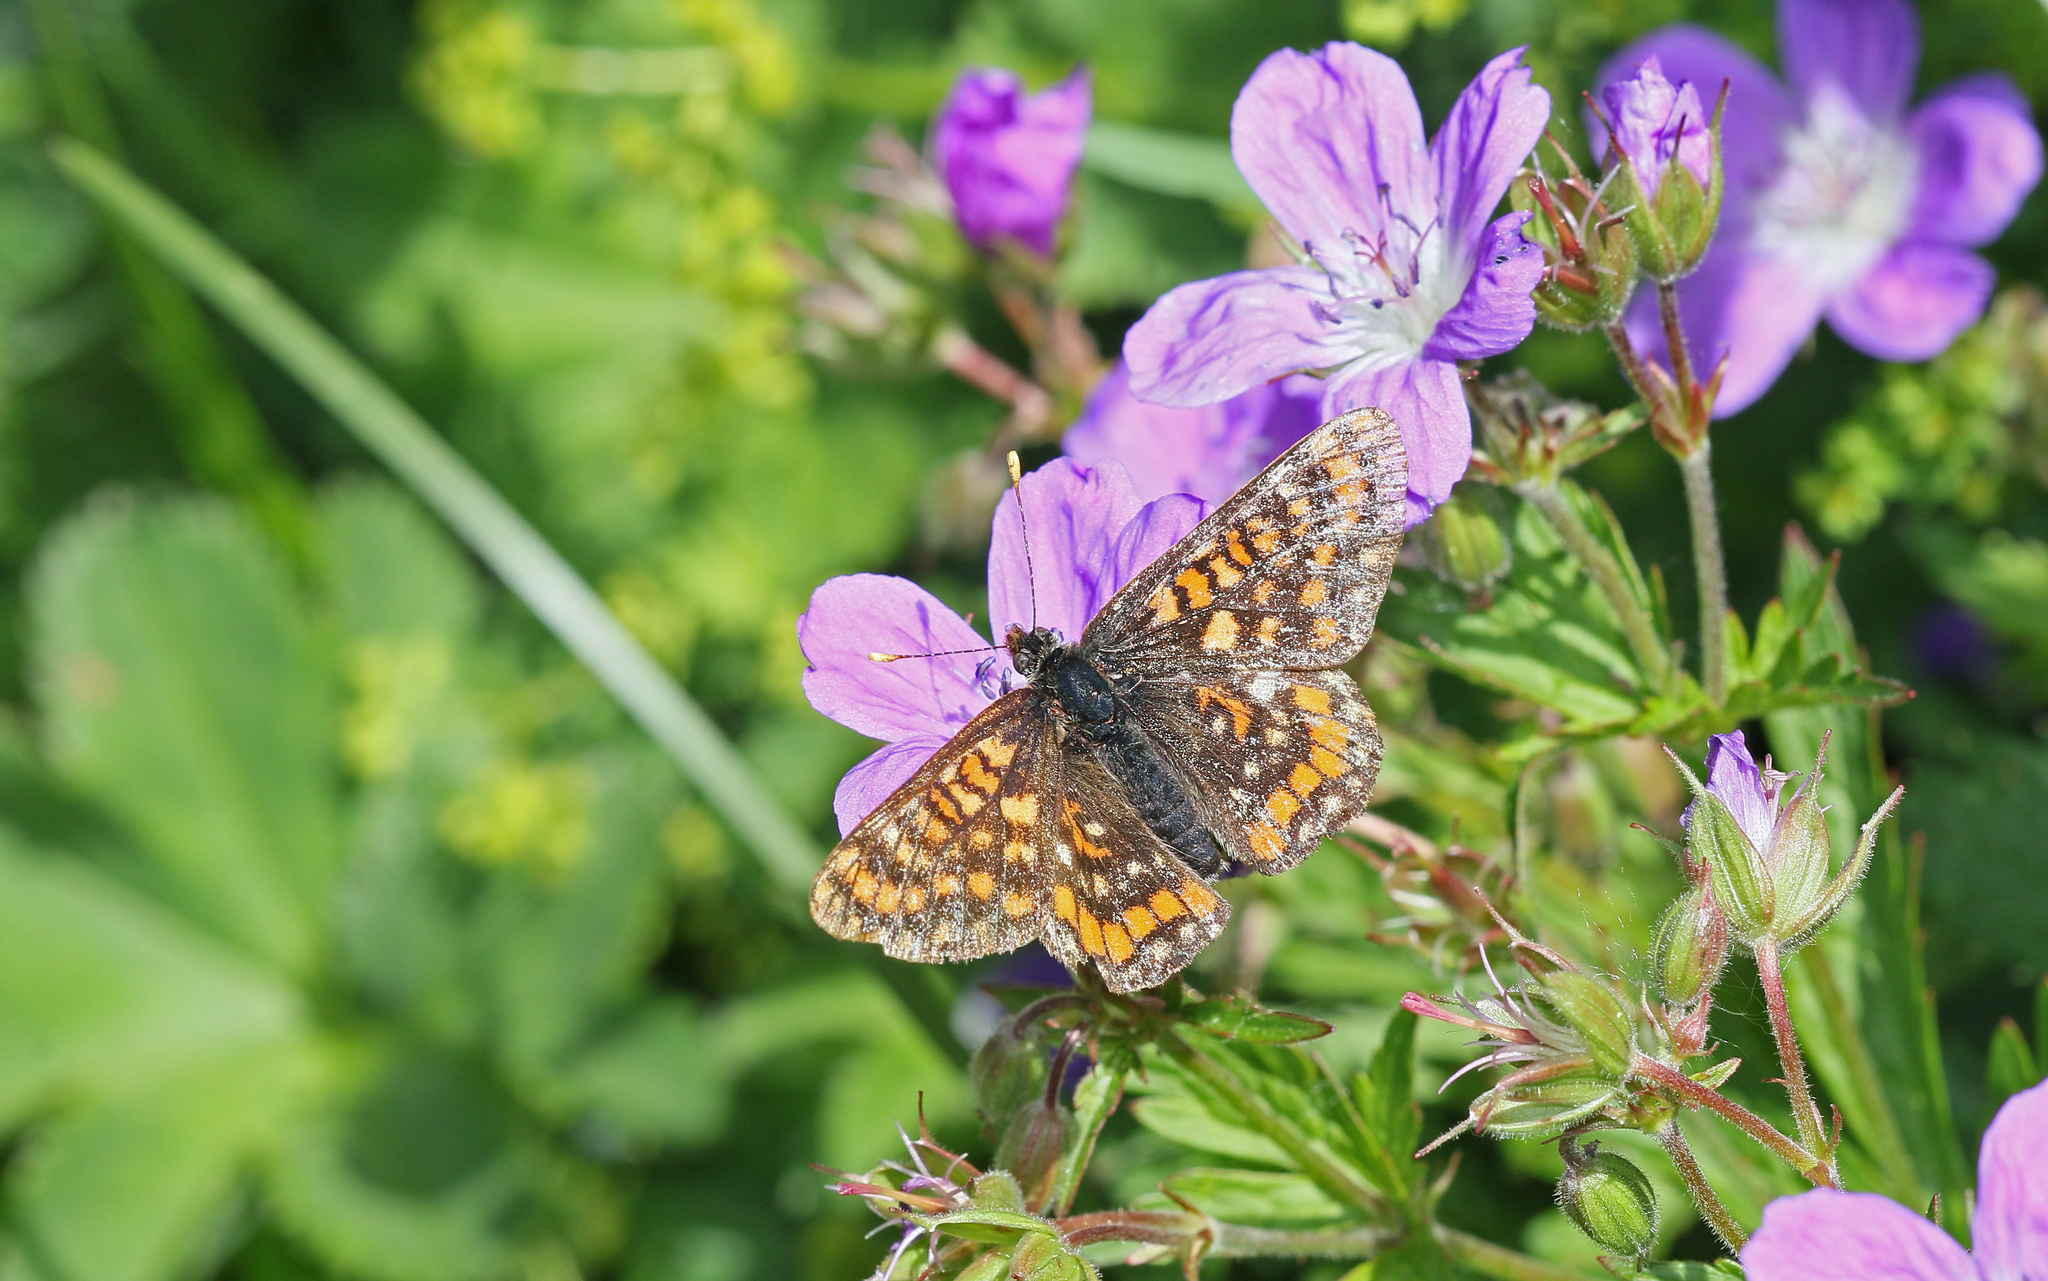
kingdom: Animalia
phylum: Arthropoda
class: Insecta
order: Lepidoptera
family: Nymphalidae
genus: Hypodryas
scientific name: Hypodryas intermedia
